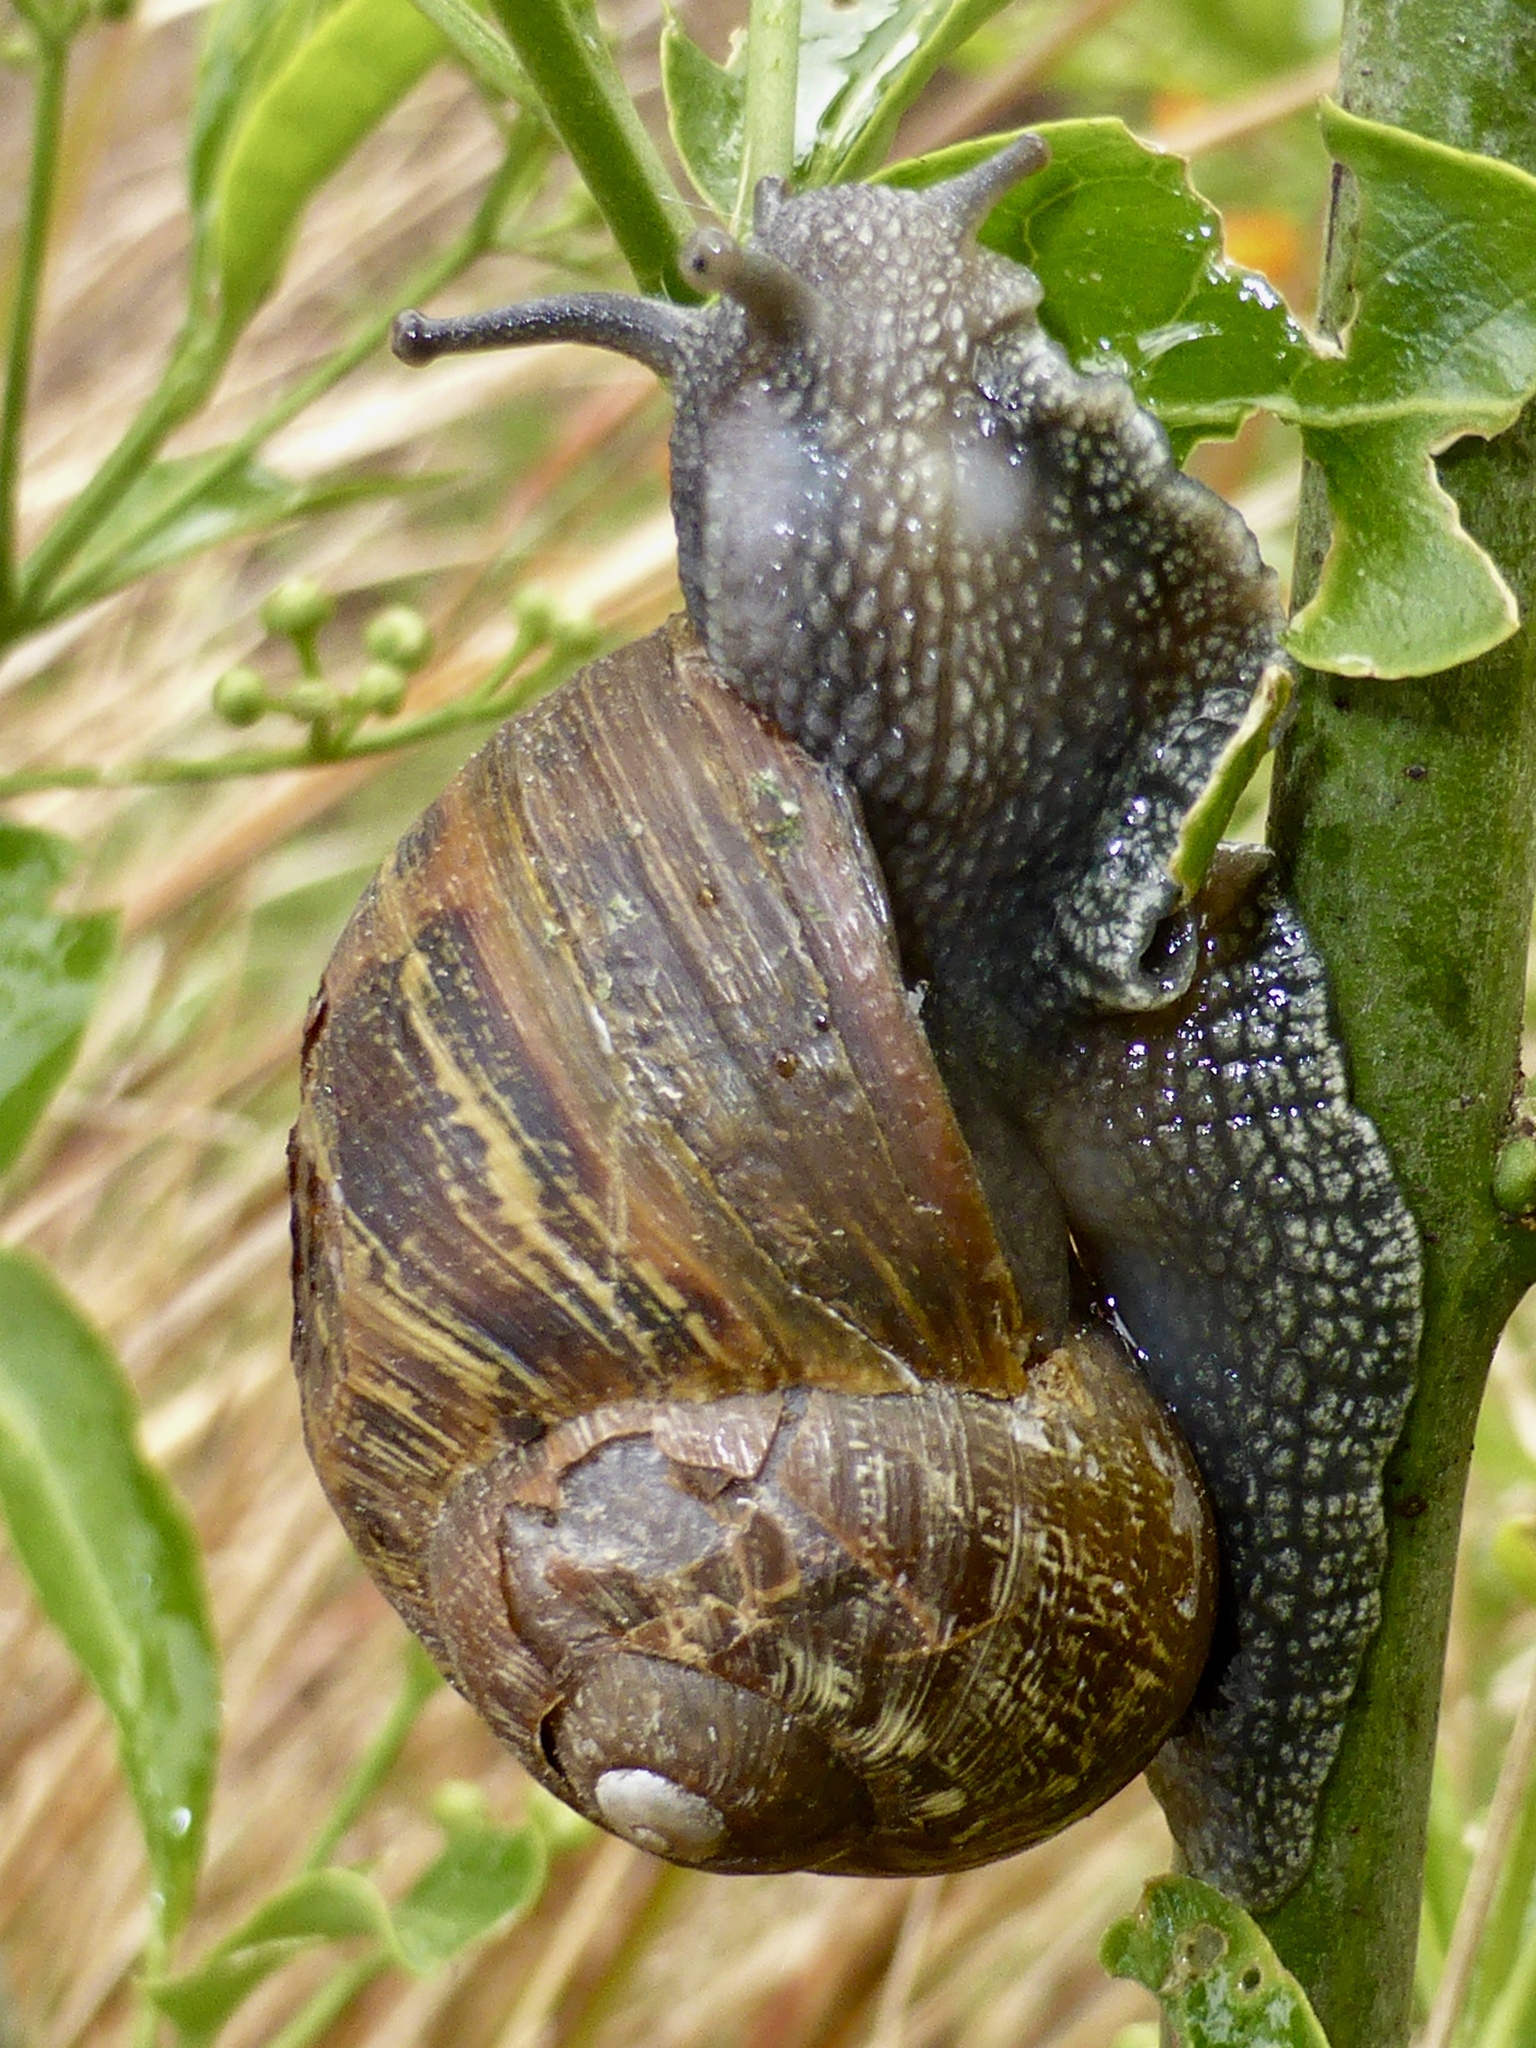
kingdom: Animalia
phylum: Mollusca
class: Gastropoda
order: Stylommatophora
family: Helicidae
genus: Cornu
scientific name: Cornu aspersum
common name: Brown garden snail
